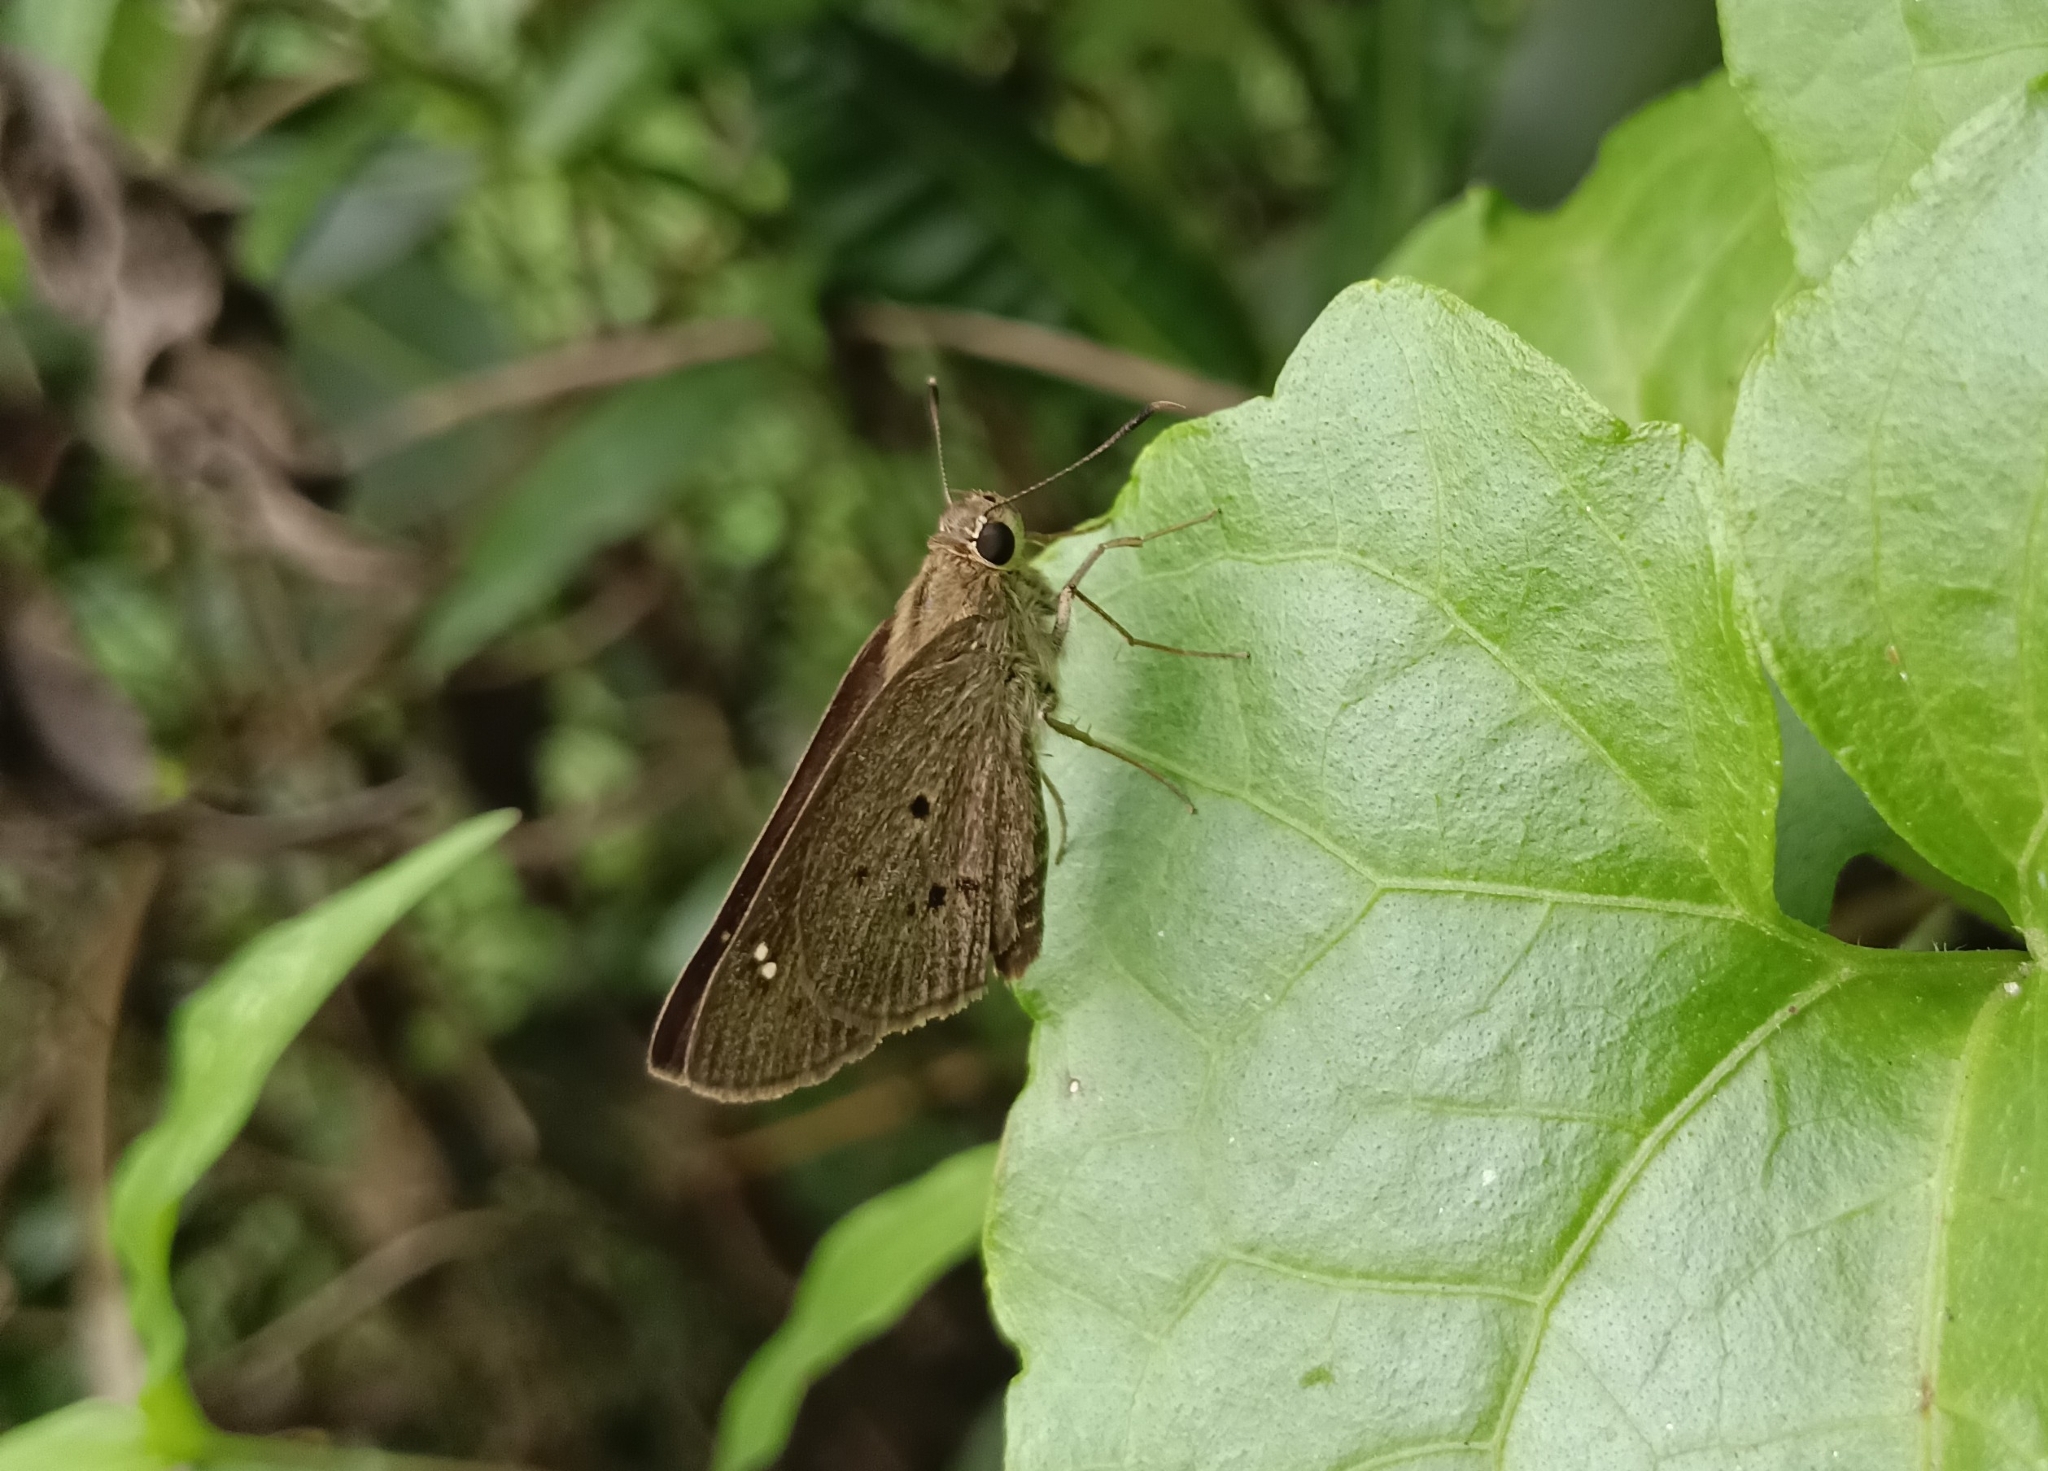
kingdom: Animalia
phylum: Arthropoda
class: Insecta
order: Lepidoptera
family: Hesperiidae
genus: Suastus
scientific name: Suastus gremius
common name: Indian palm bob
